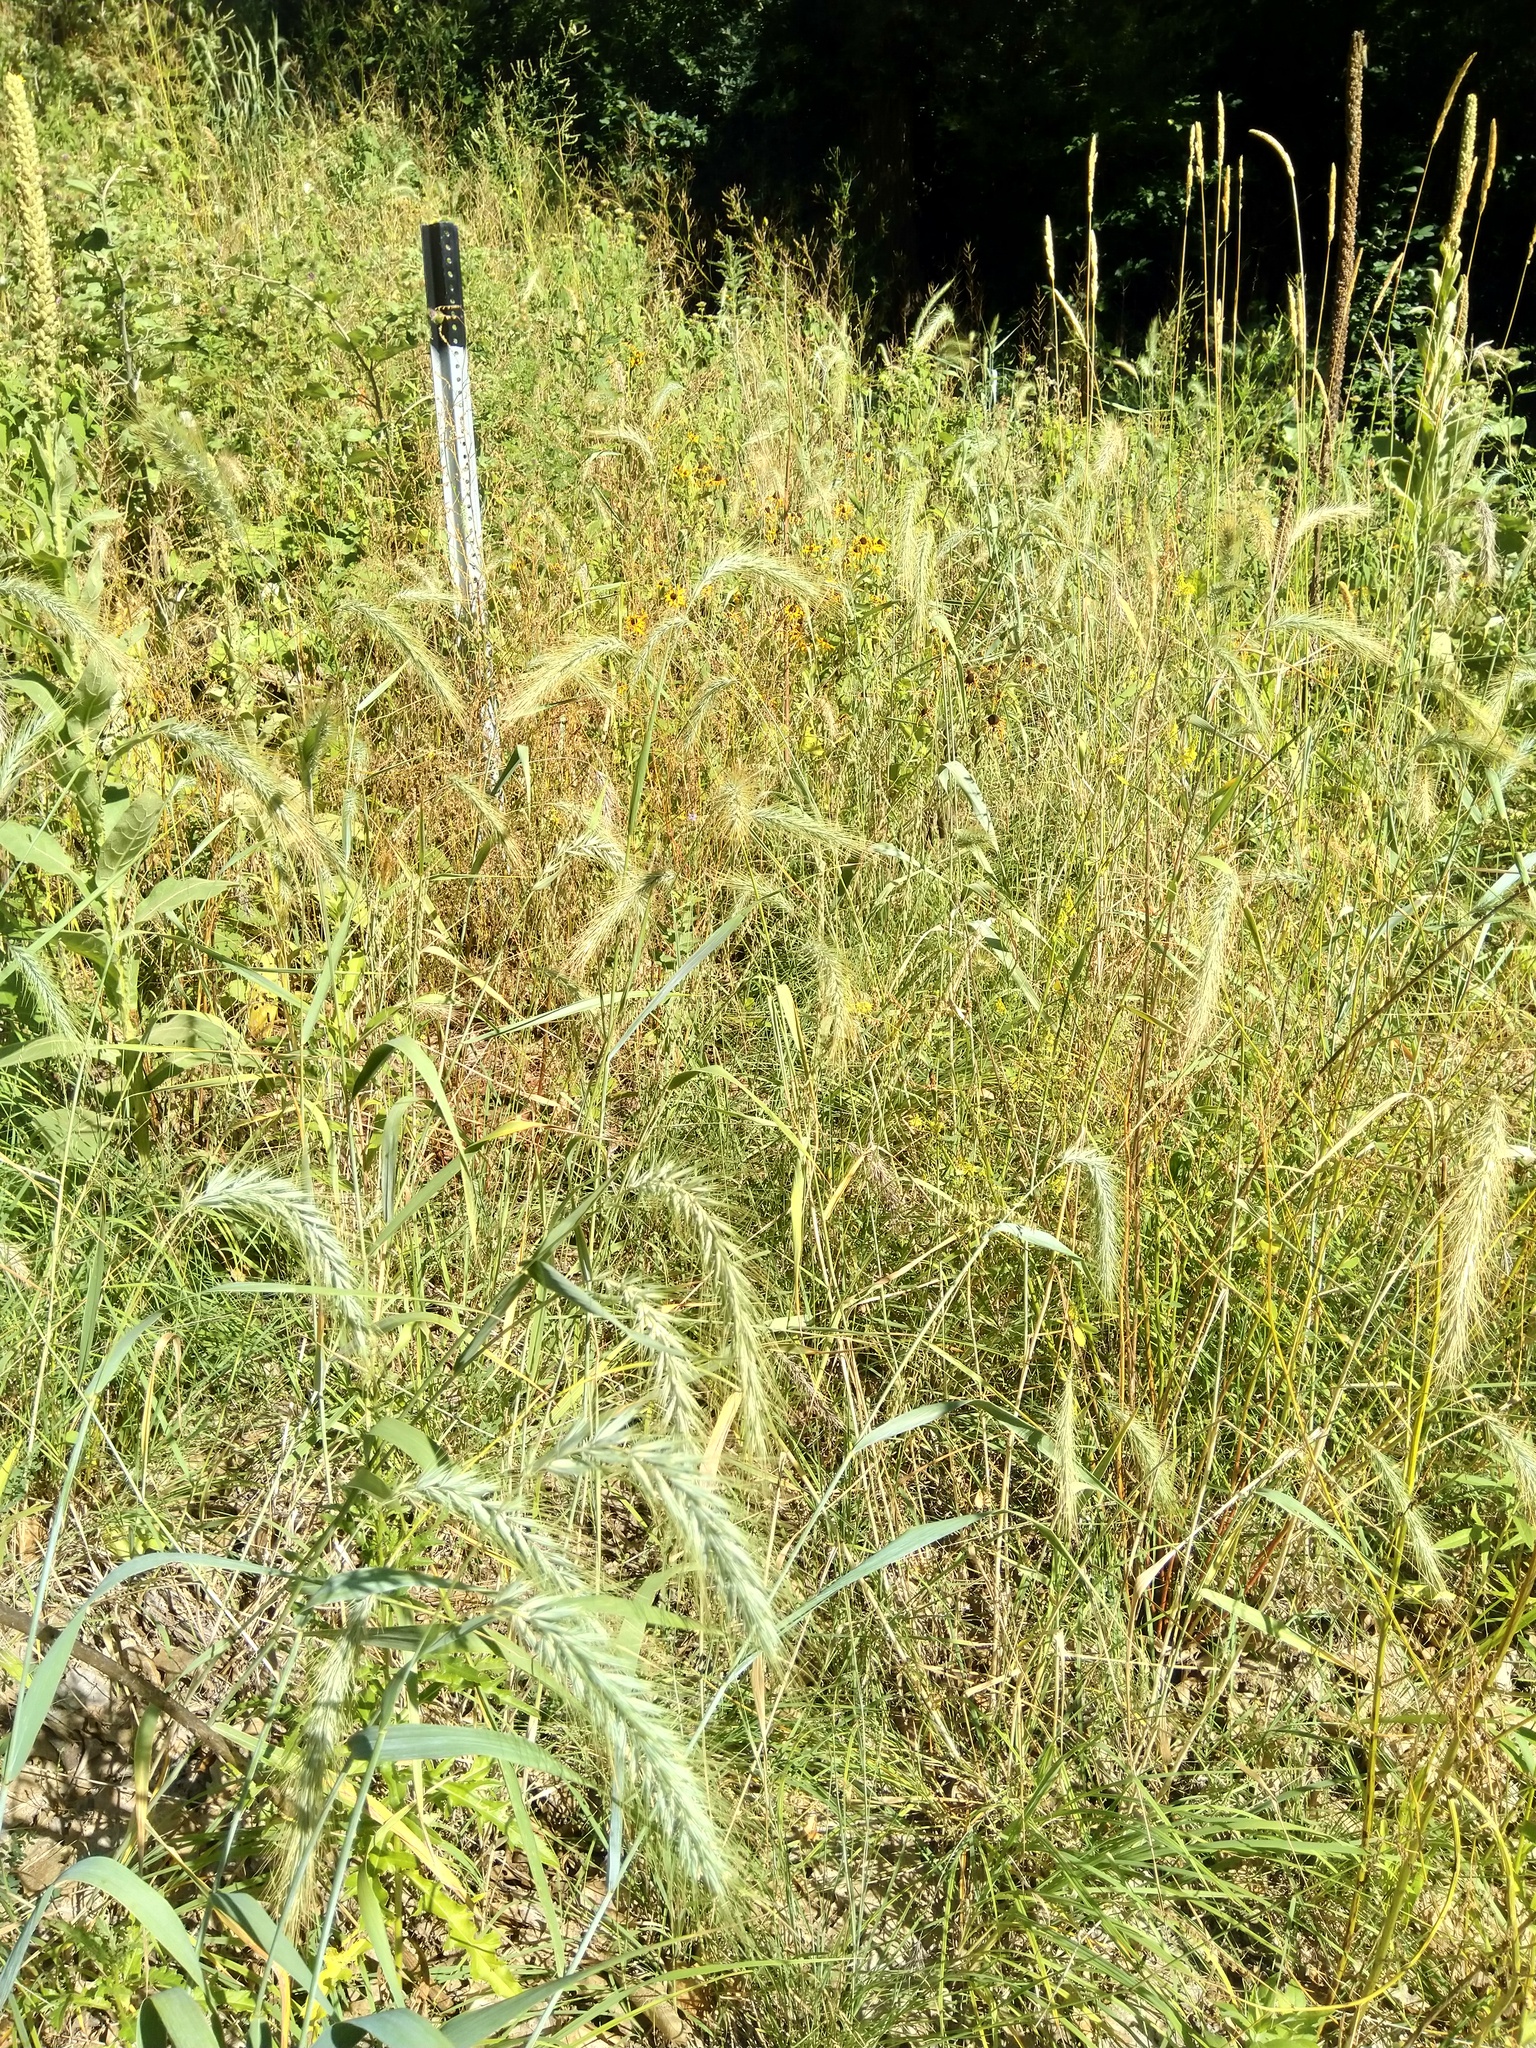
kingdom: Plantae
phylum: Tracheophyta
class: Liliopsida
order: Poales
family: Poaceae
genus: Elymus
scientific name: Elymus canadensis
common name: Canada wild rye
